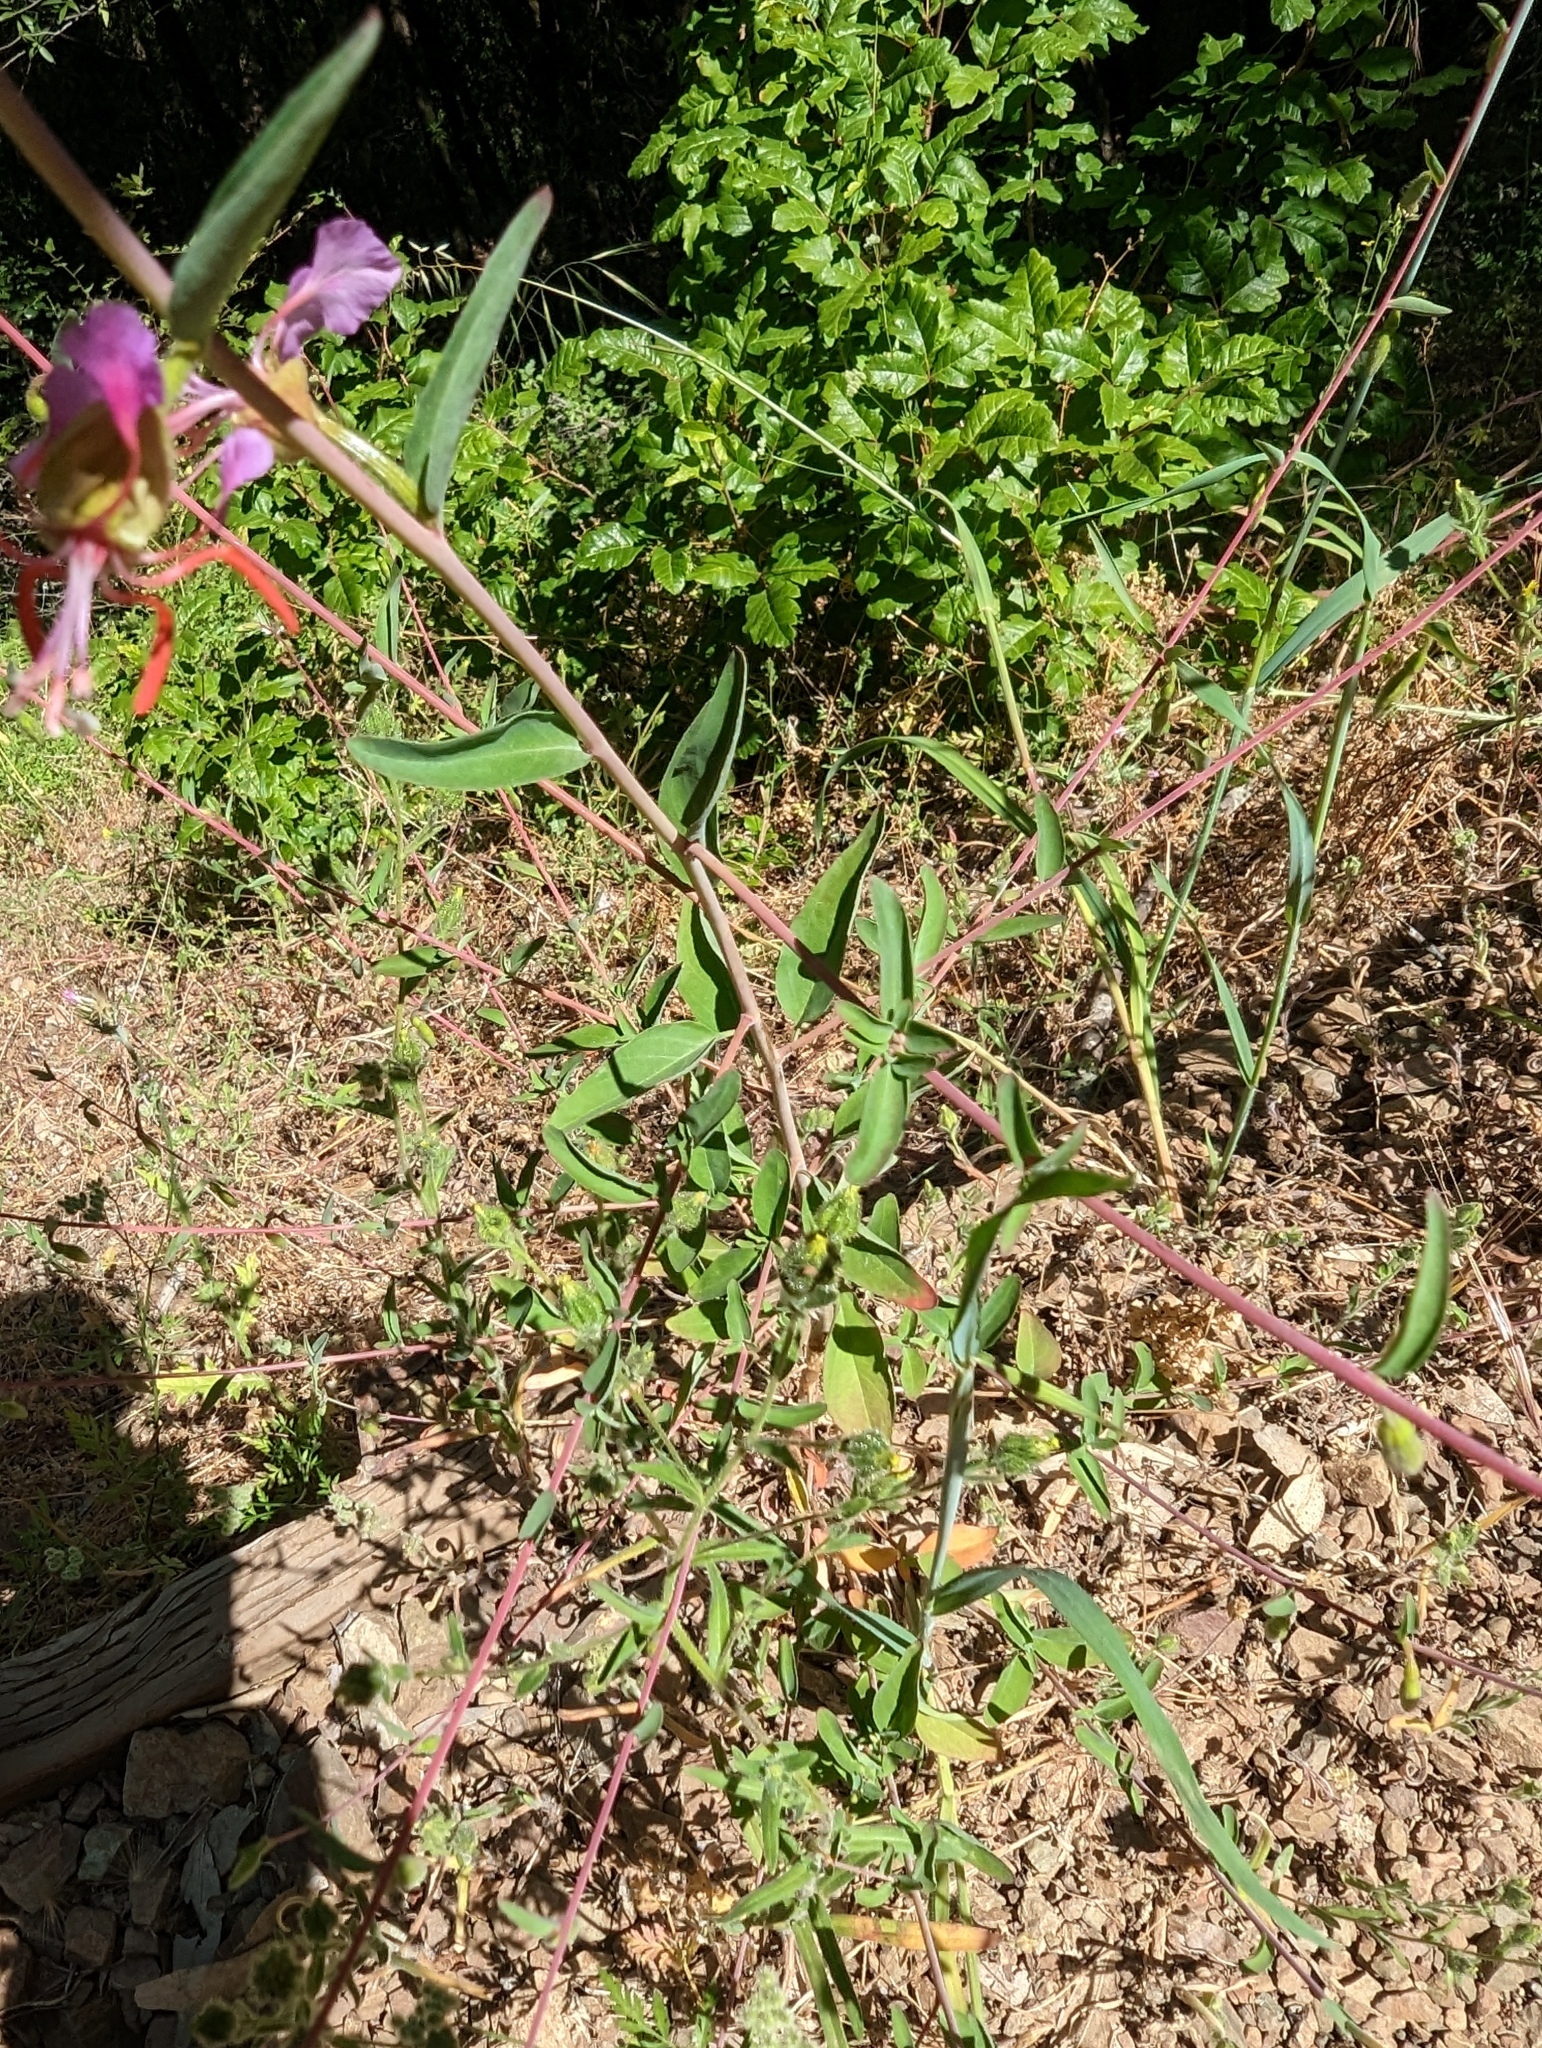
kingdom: Plantae
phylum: Tracheophyta
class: Magnoliopsida
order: Myrtales
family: Onagraceae
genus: Clarkia
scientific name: Clarkia unguiculata
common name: Clarkia
